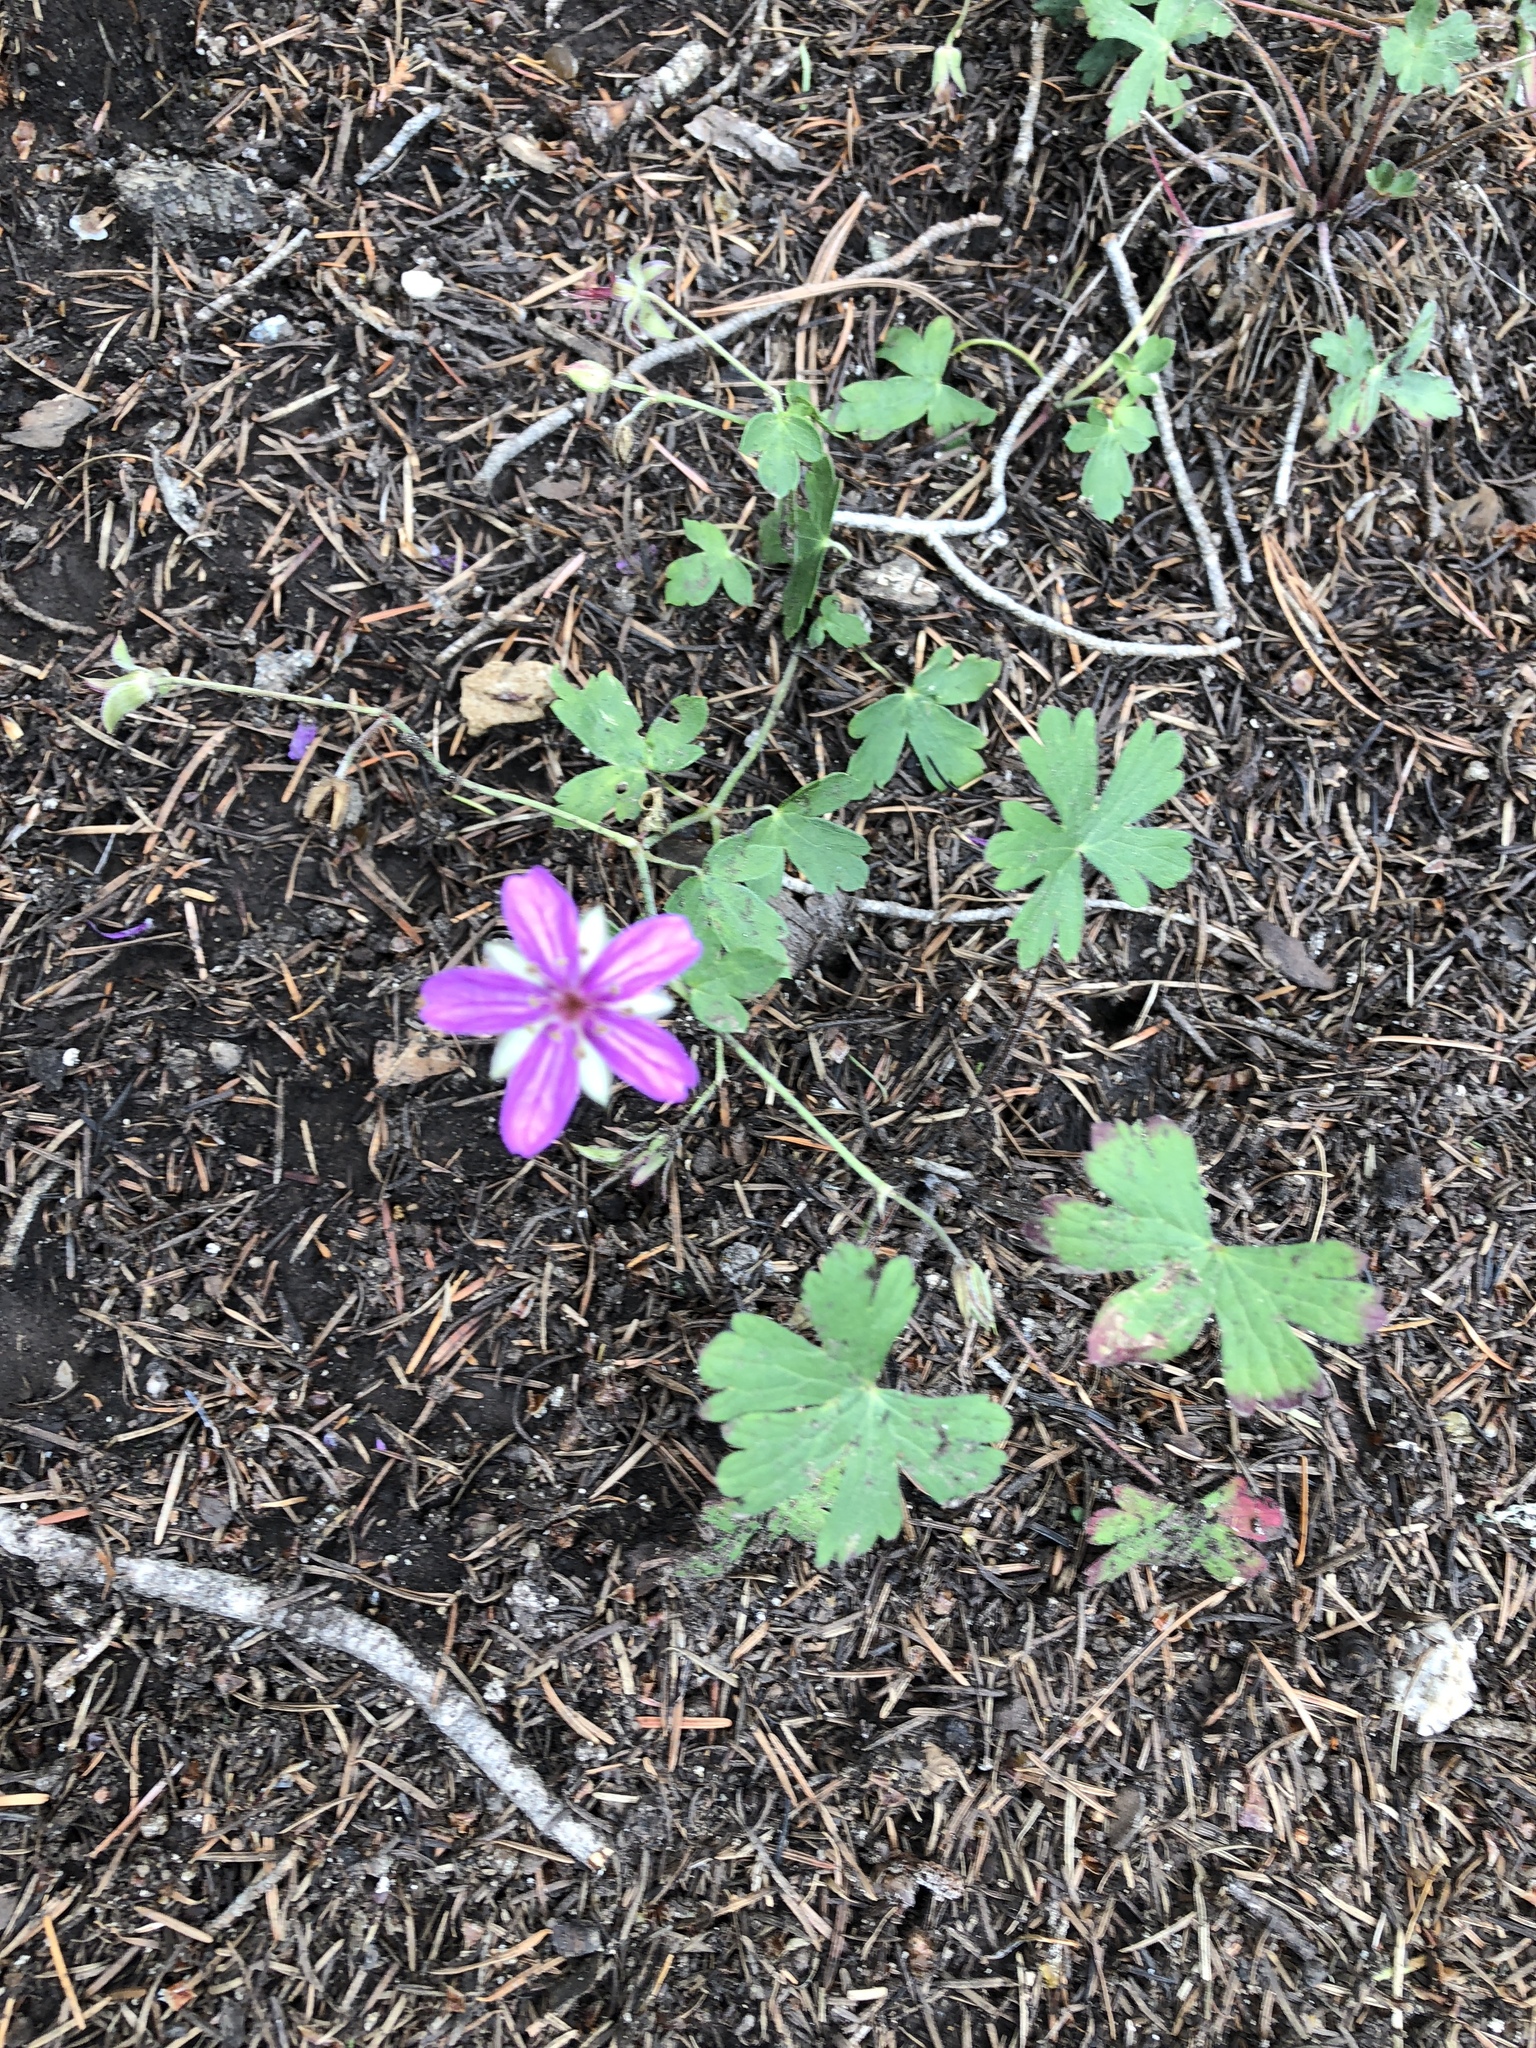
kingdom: Plantae
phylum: Tracheophyta
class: Magnoliopsida
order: Geraniales
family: Geraniaceae
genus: Geranium
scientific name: Geranium caespitosum
